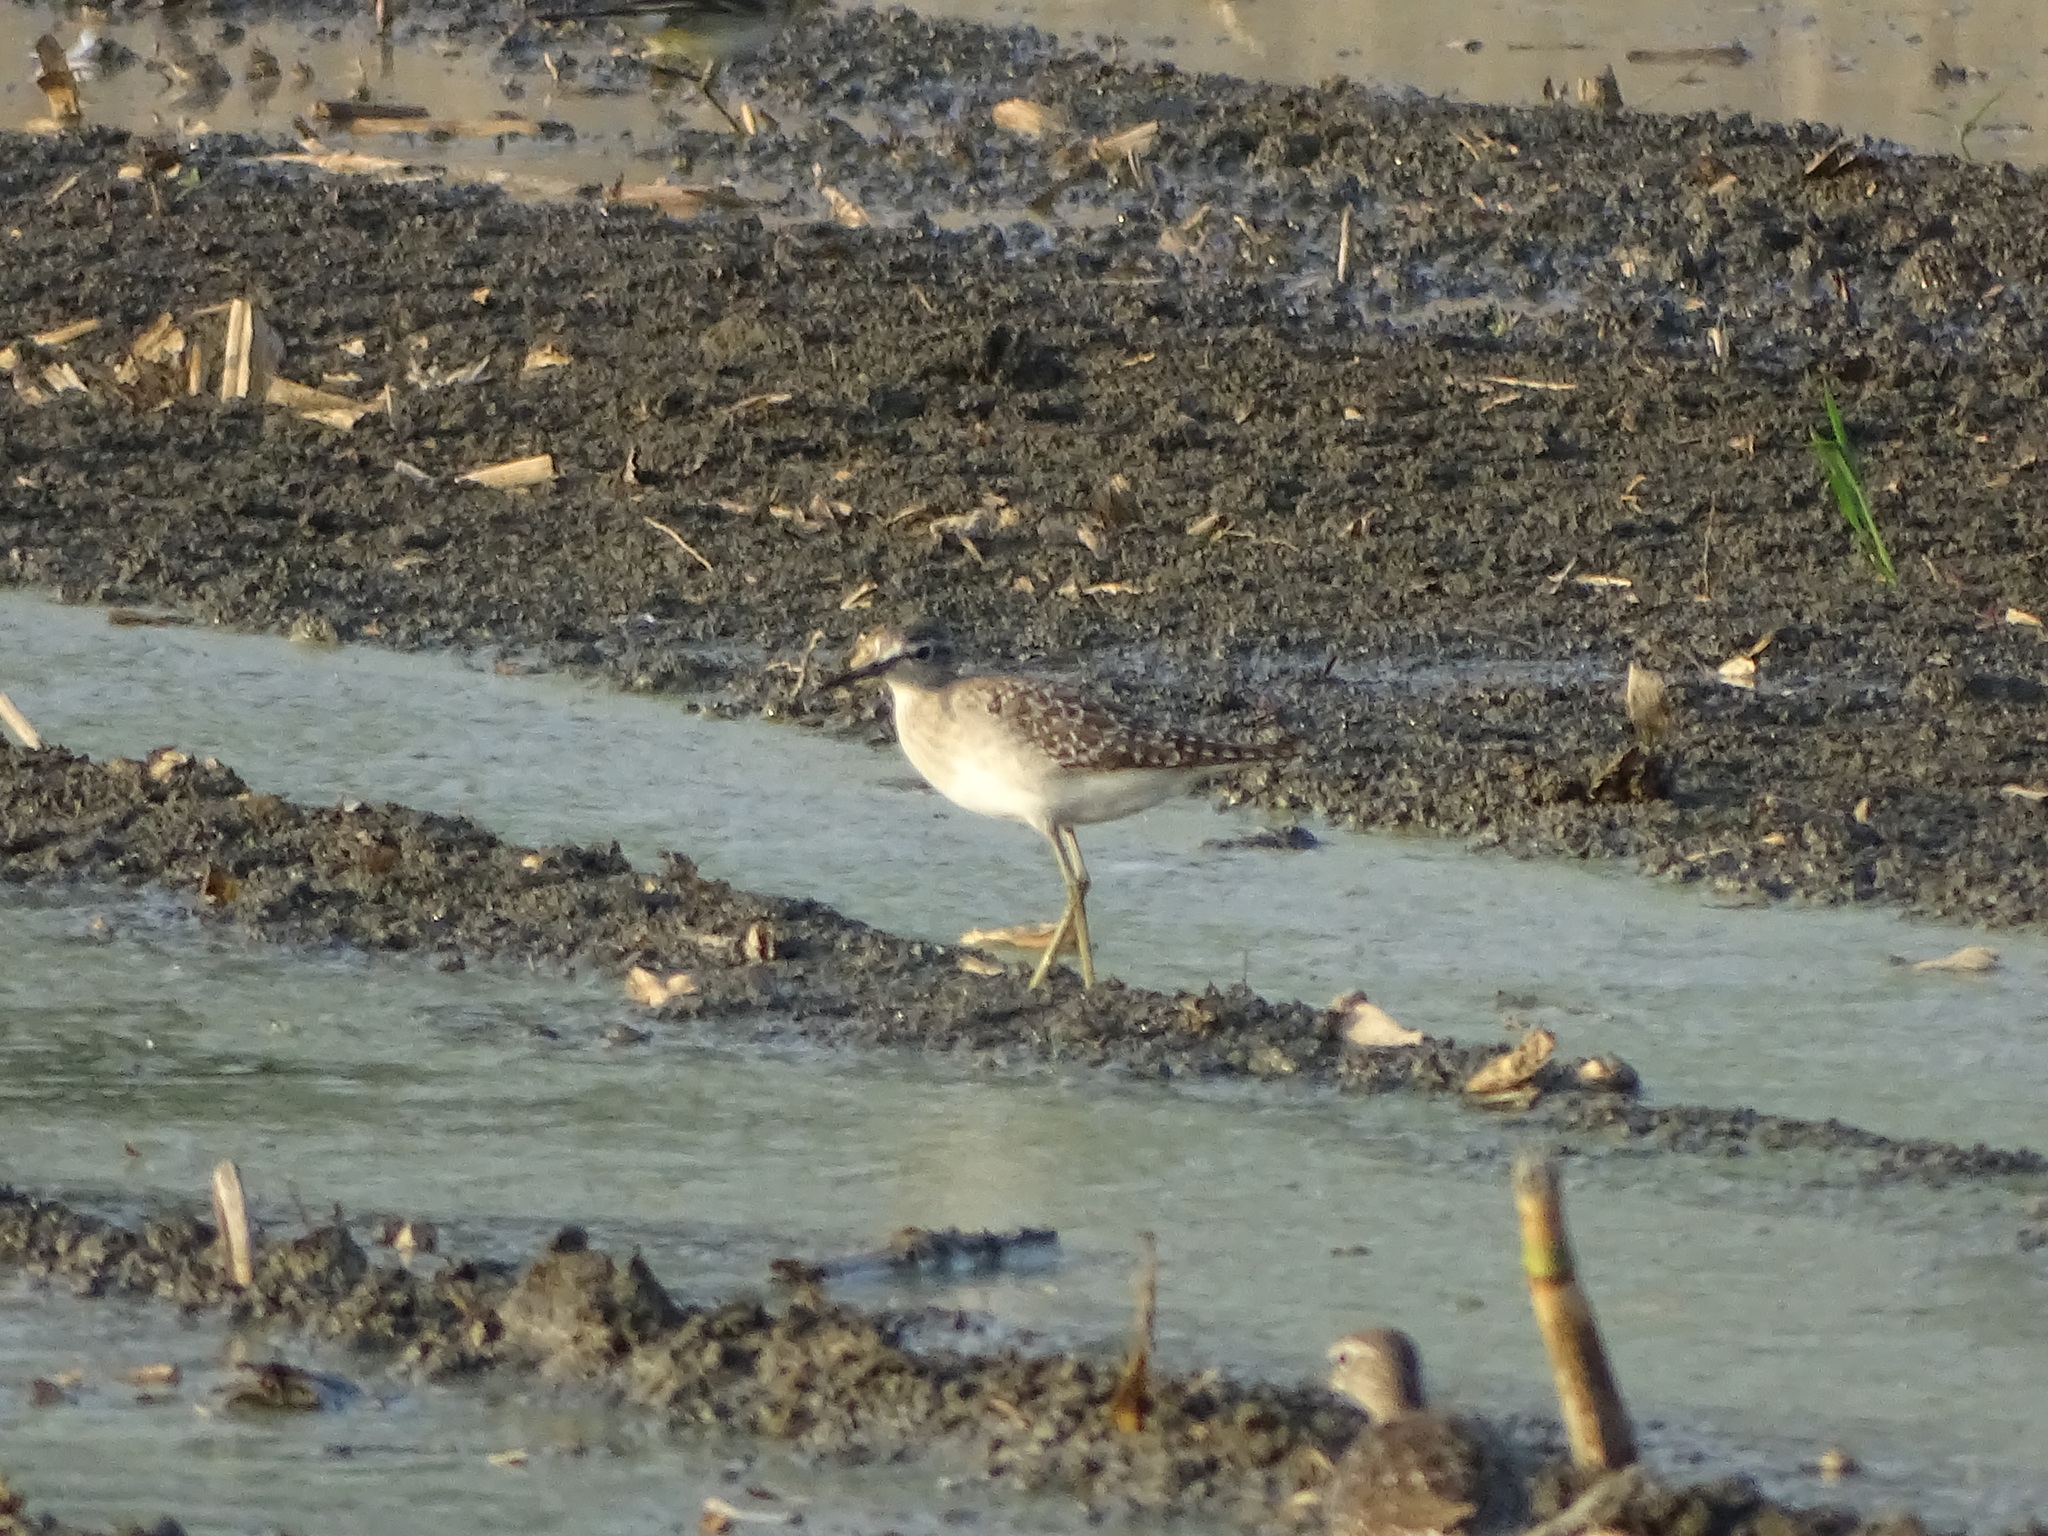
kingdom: Animalia
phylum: Chordata
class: Aves
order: Charadriiformes
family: Scolopacidae
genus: Tringa
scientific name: Tringa glareola
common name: Wood sandpiper
